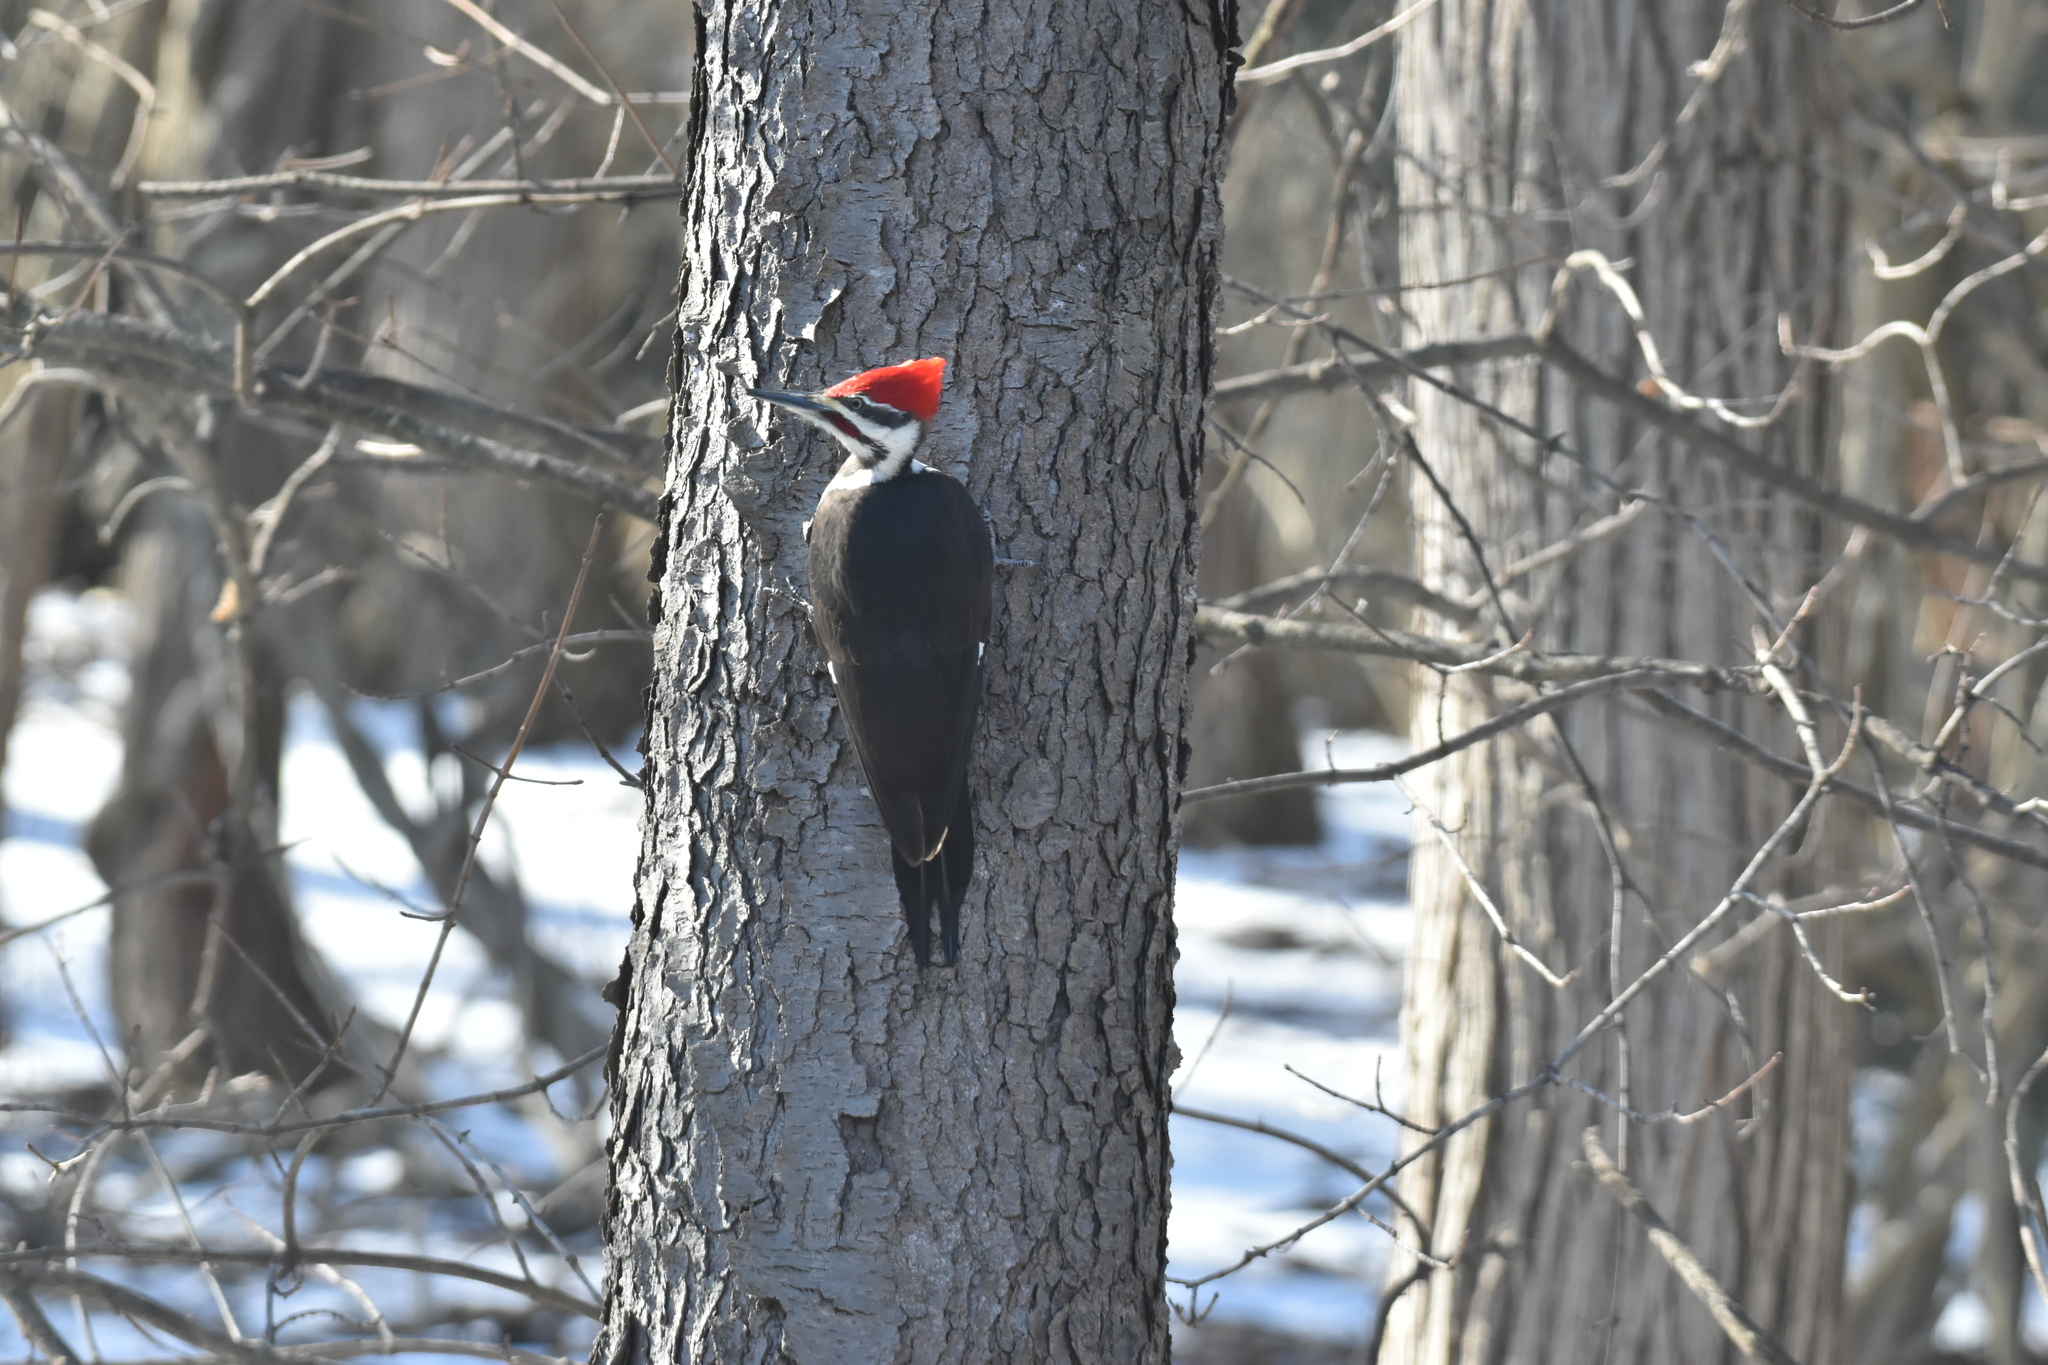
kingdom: Animalia
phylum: Chordata
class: Aves
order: Piciformes
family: Picidae
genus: Dryocopus
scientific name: Dryocopus pileatus
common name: Pileated woodpecker
